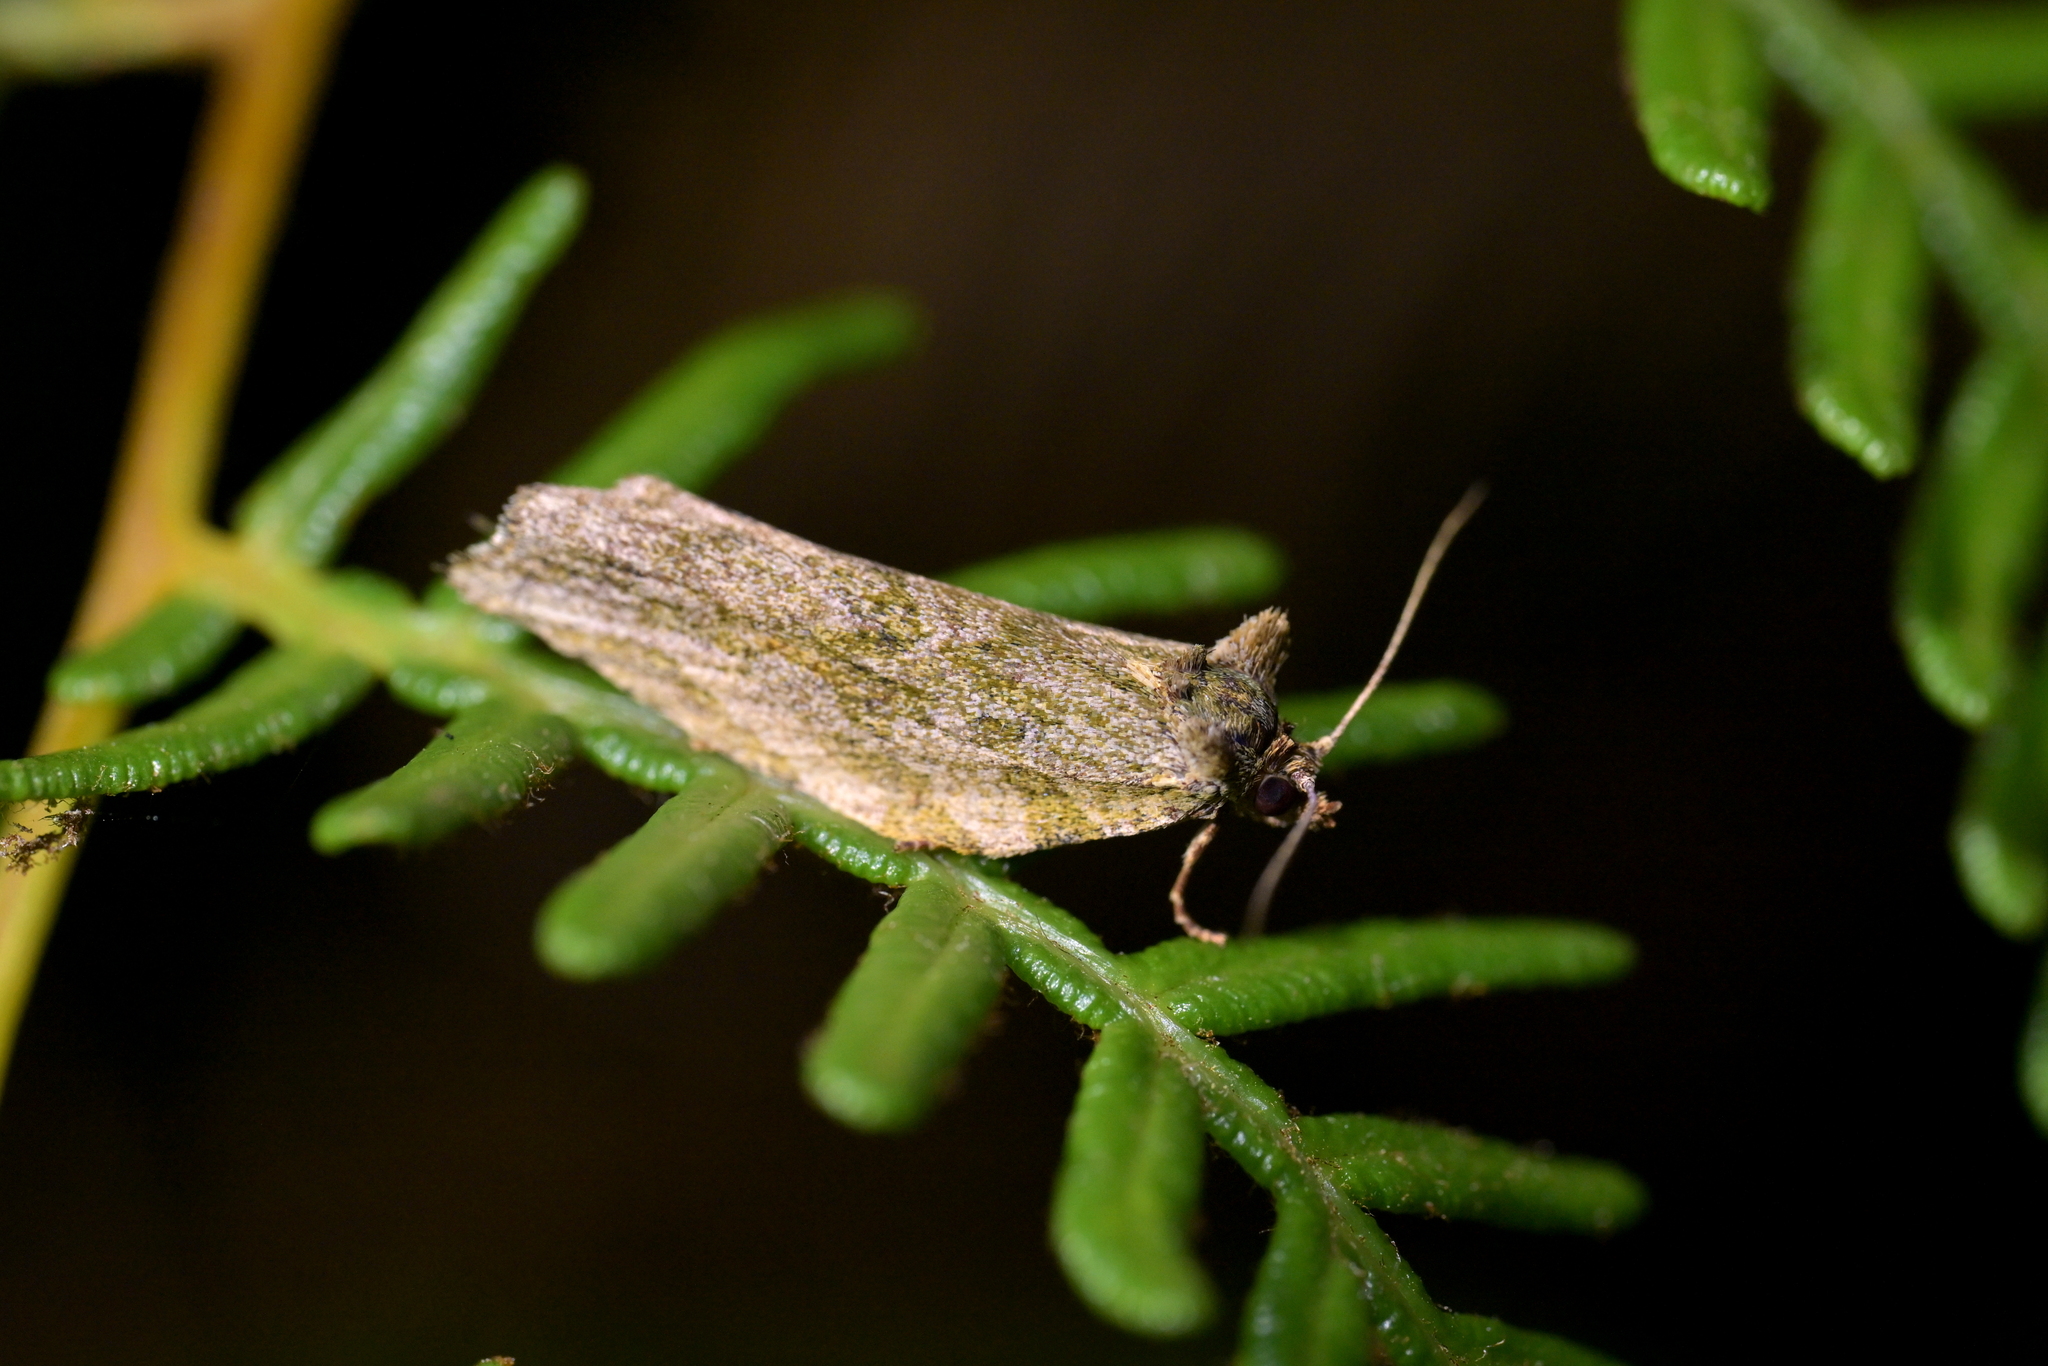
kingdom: Animalia
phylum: Arthropoda
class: Insecta
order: Lepidoptera
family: Tortricidae
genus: Epalxiphora
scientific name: Epalxiphora axenana
